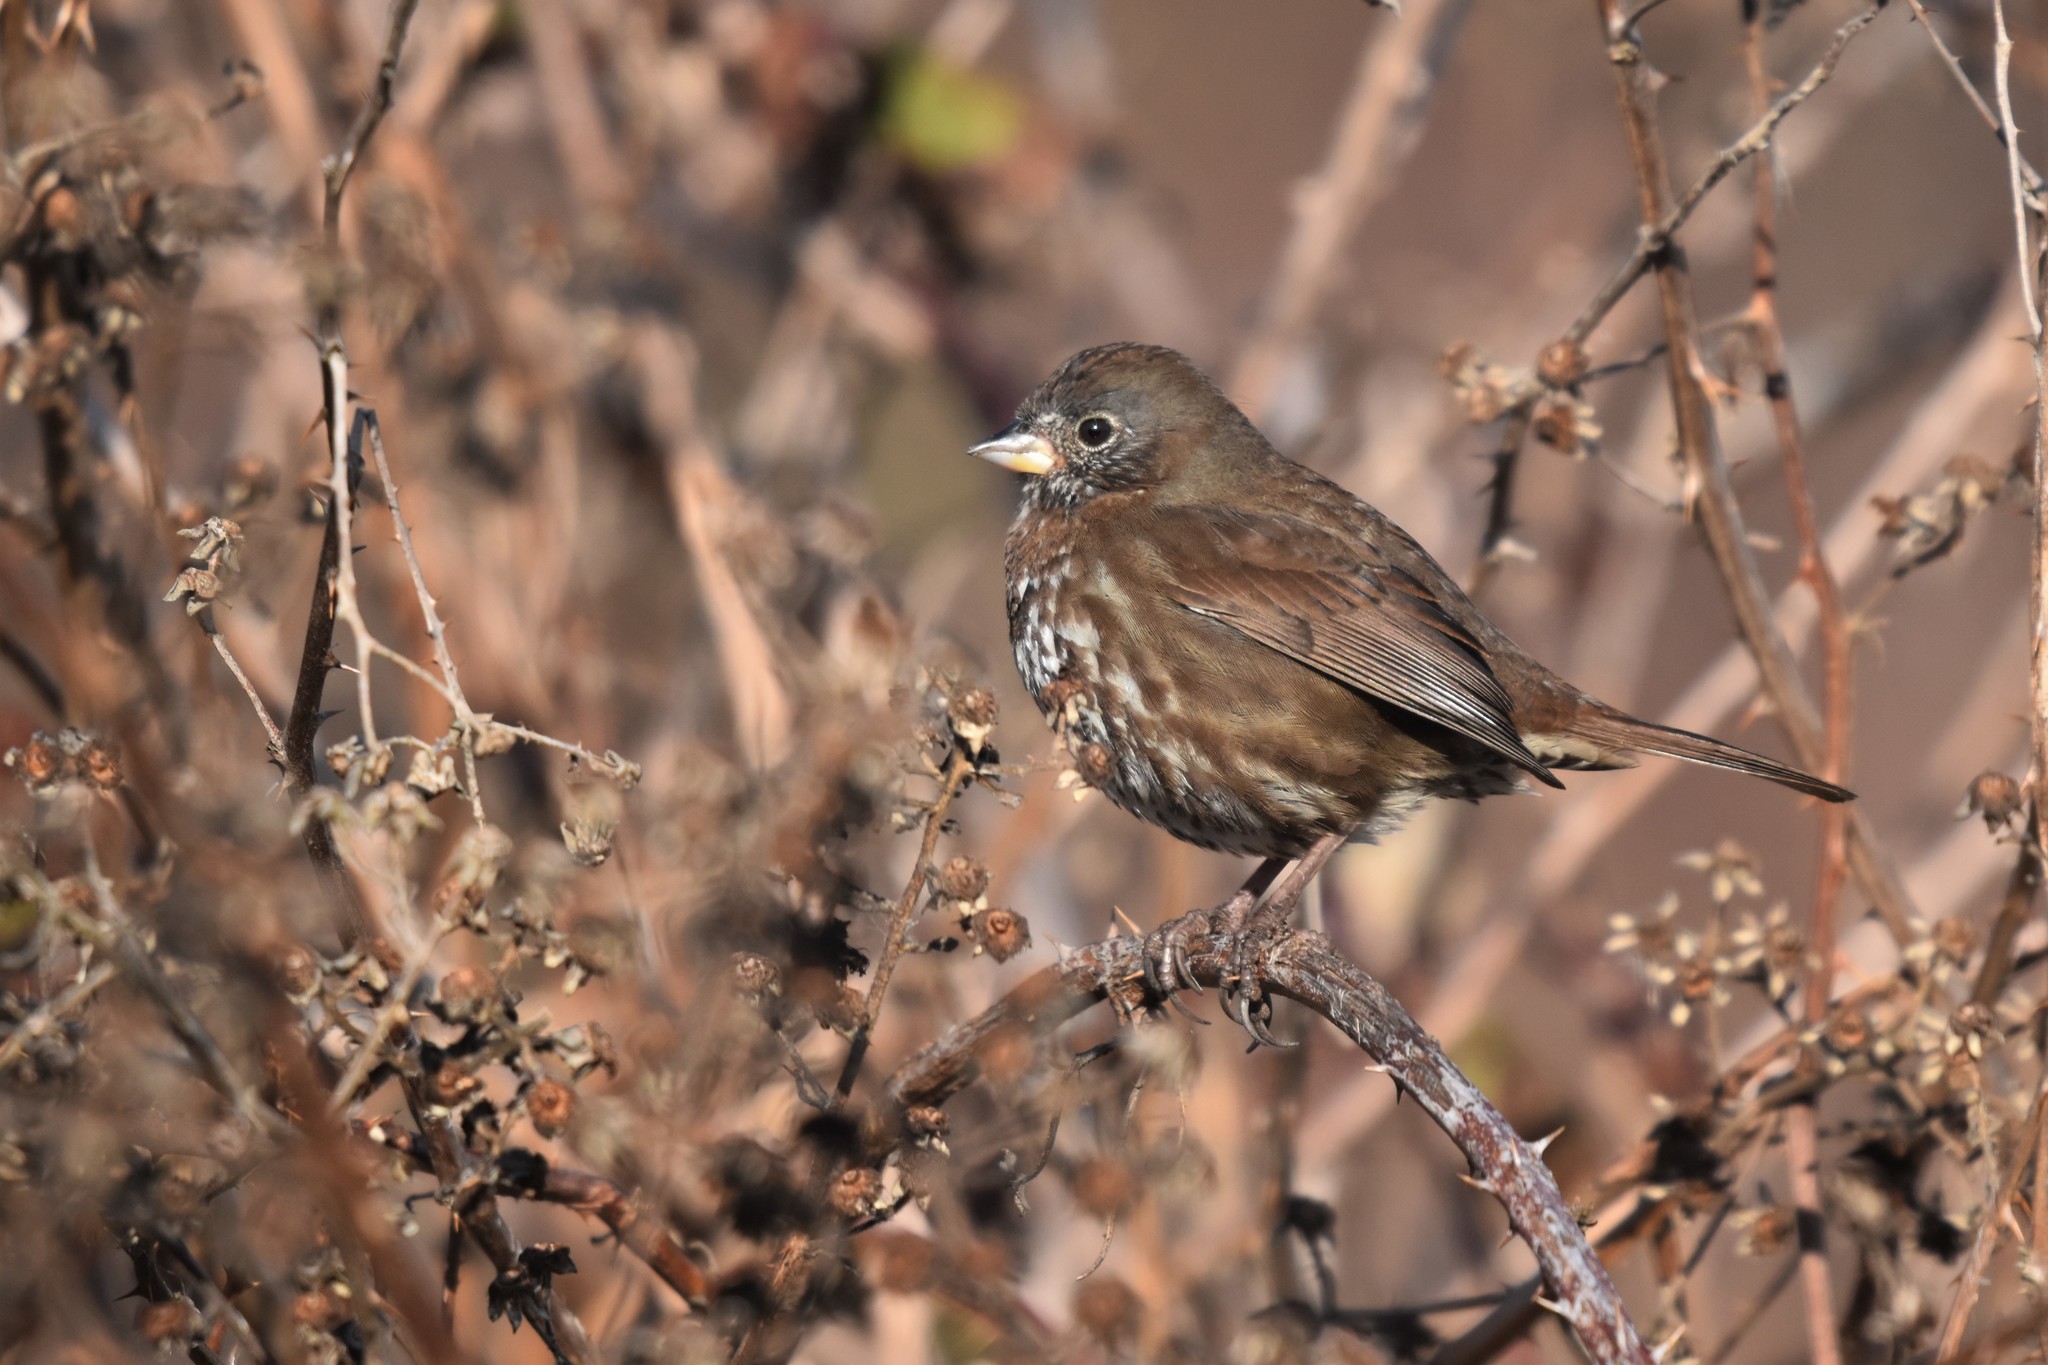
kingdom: Animalia
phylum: Chordata
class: Aves
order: Passeriformes
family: Passerellidae
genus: Passerella
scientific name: Passerella iliaca
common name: Fox sparrow
